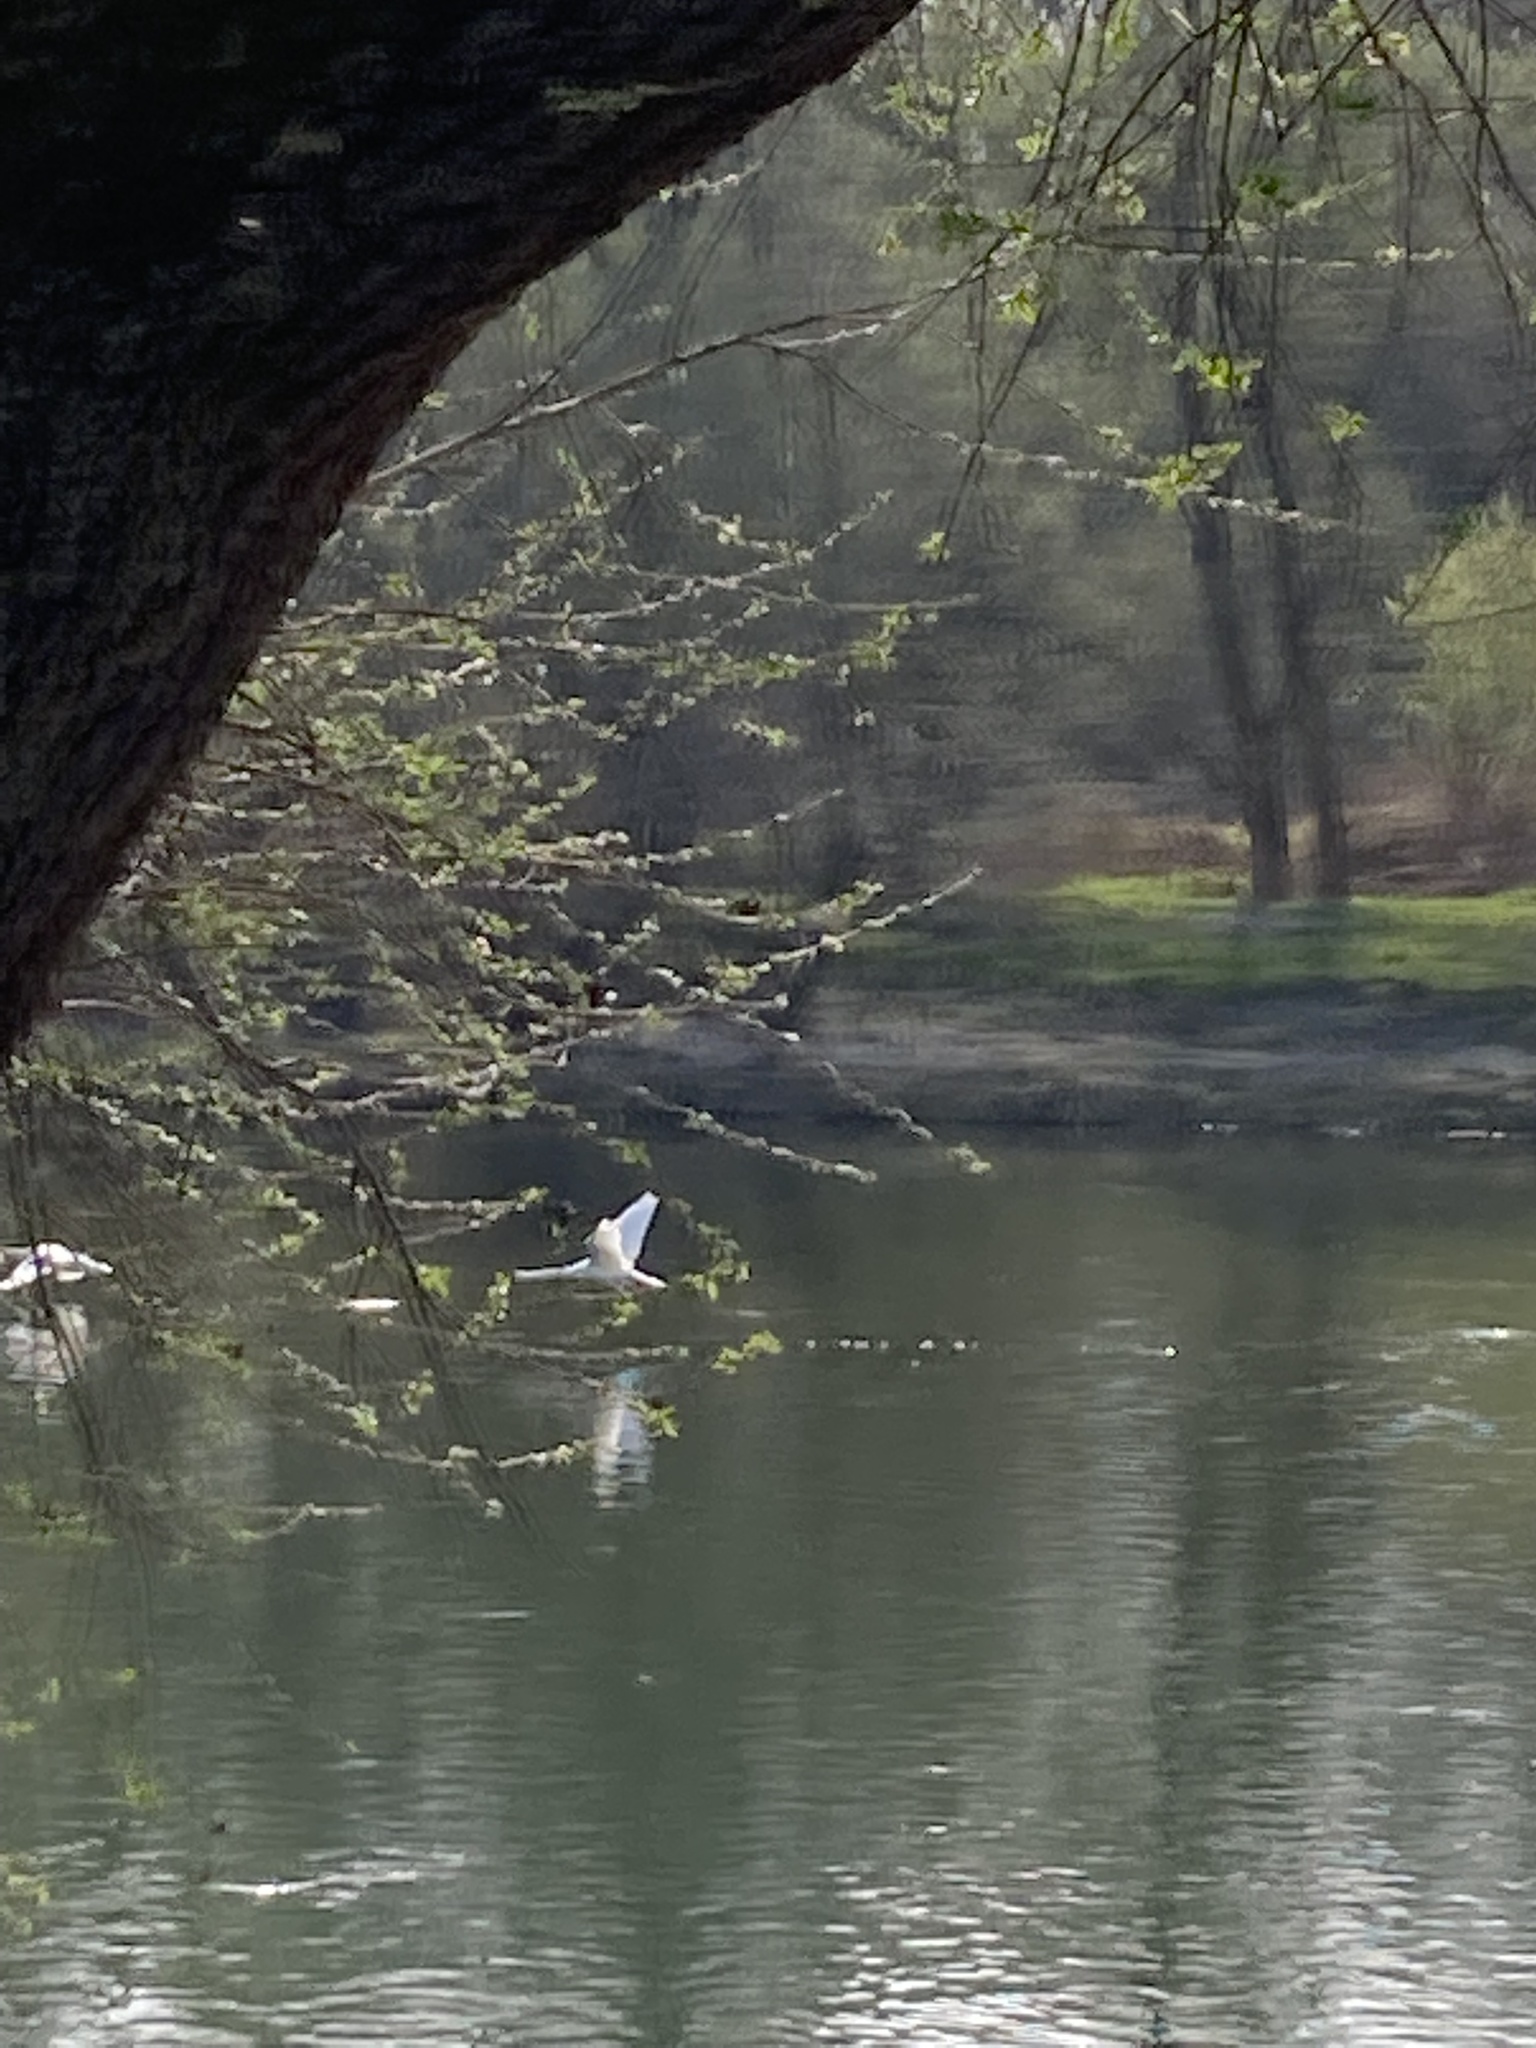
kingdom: Animalia
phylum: Chordata
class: Aves
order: Anseriformes
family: Anatidae
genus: Cygnus
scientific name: Cygnus olor
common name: Mute swan
